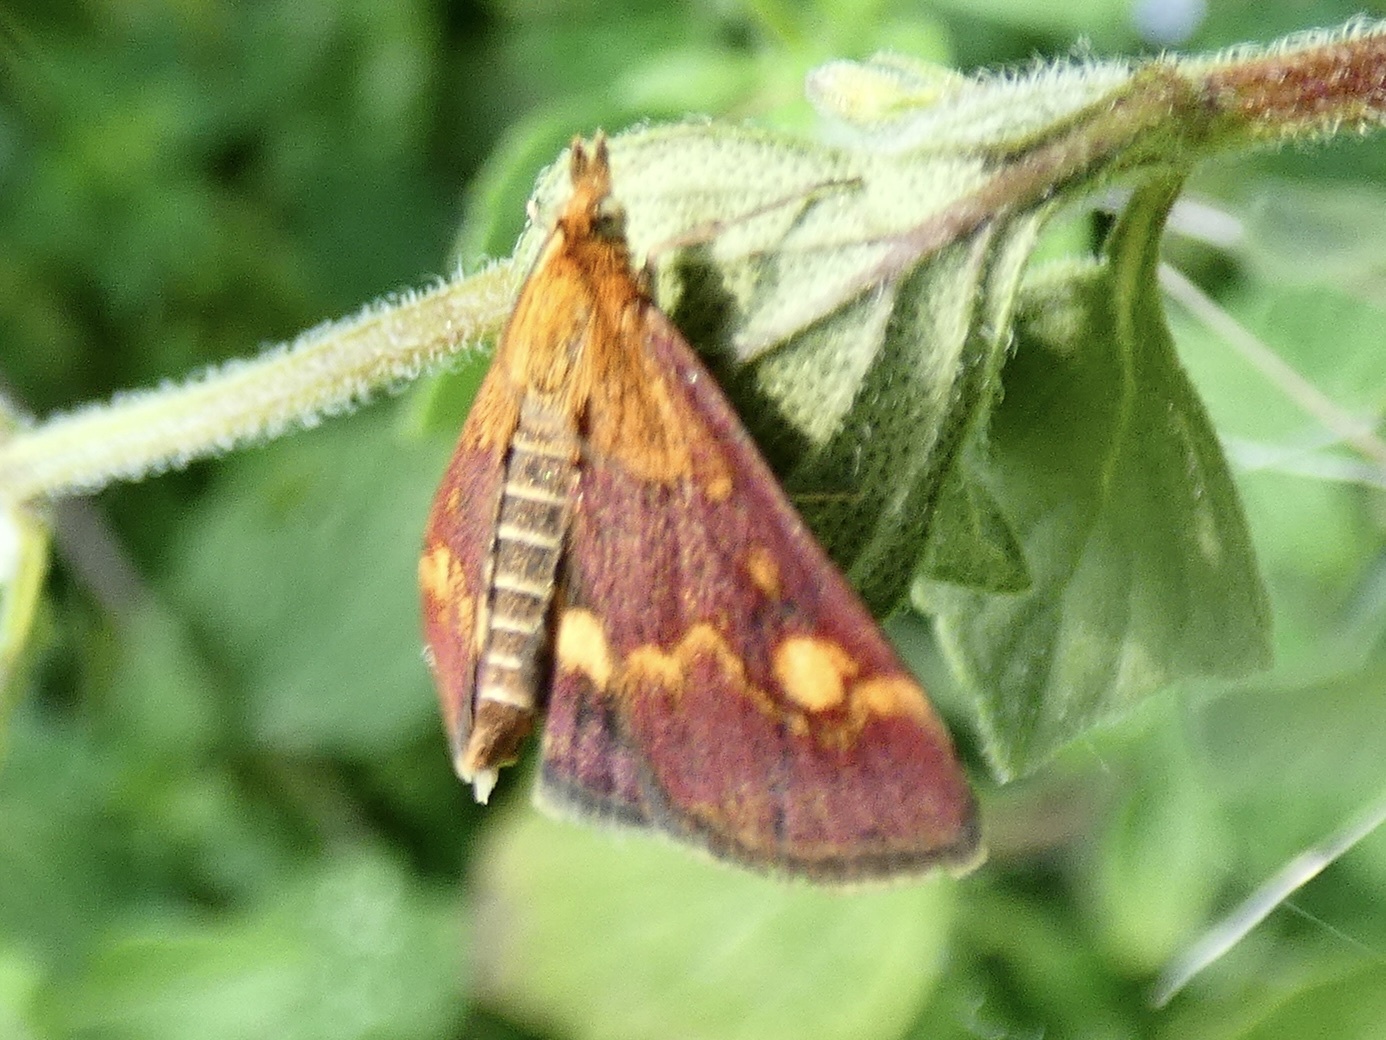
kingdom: Animalia
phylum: Arthropoda
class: Insecta
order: Lepidoptera
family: Crambidae
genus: Pyrausta
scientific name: Pyrausta aurata
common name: Small purple & gold
